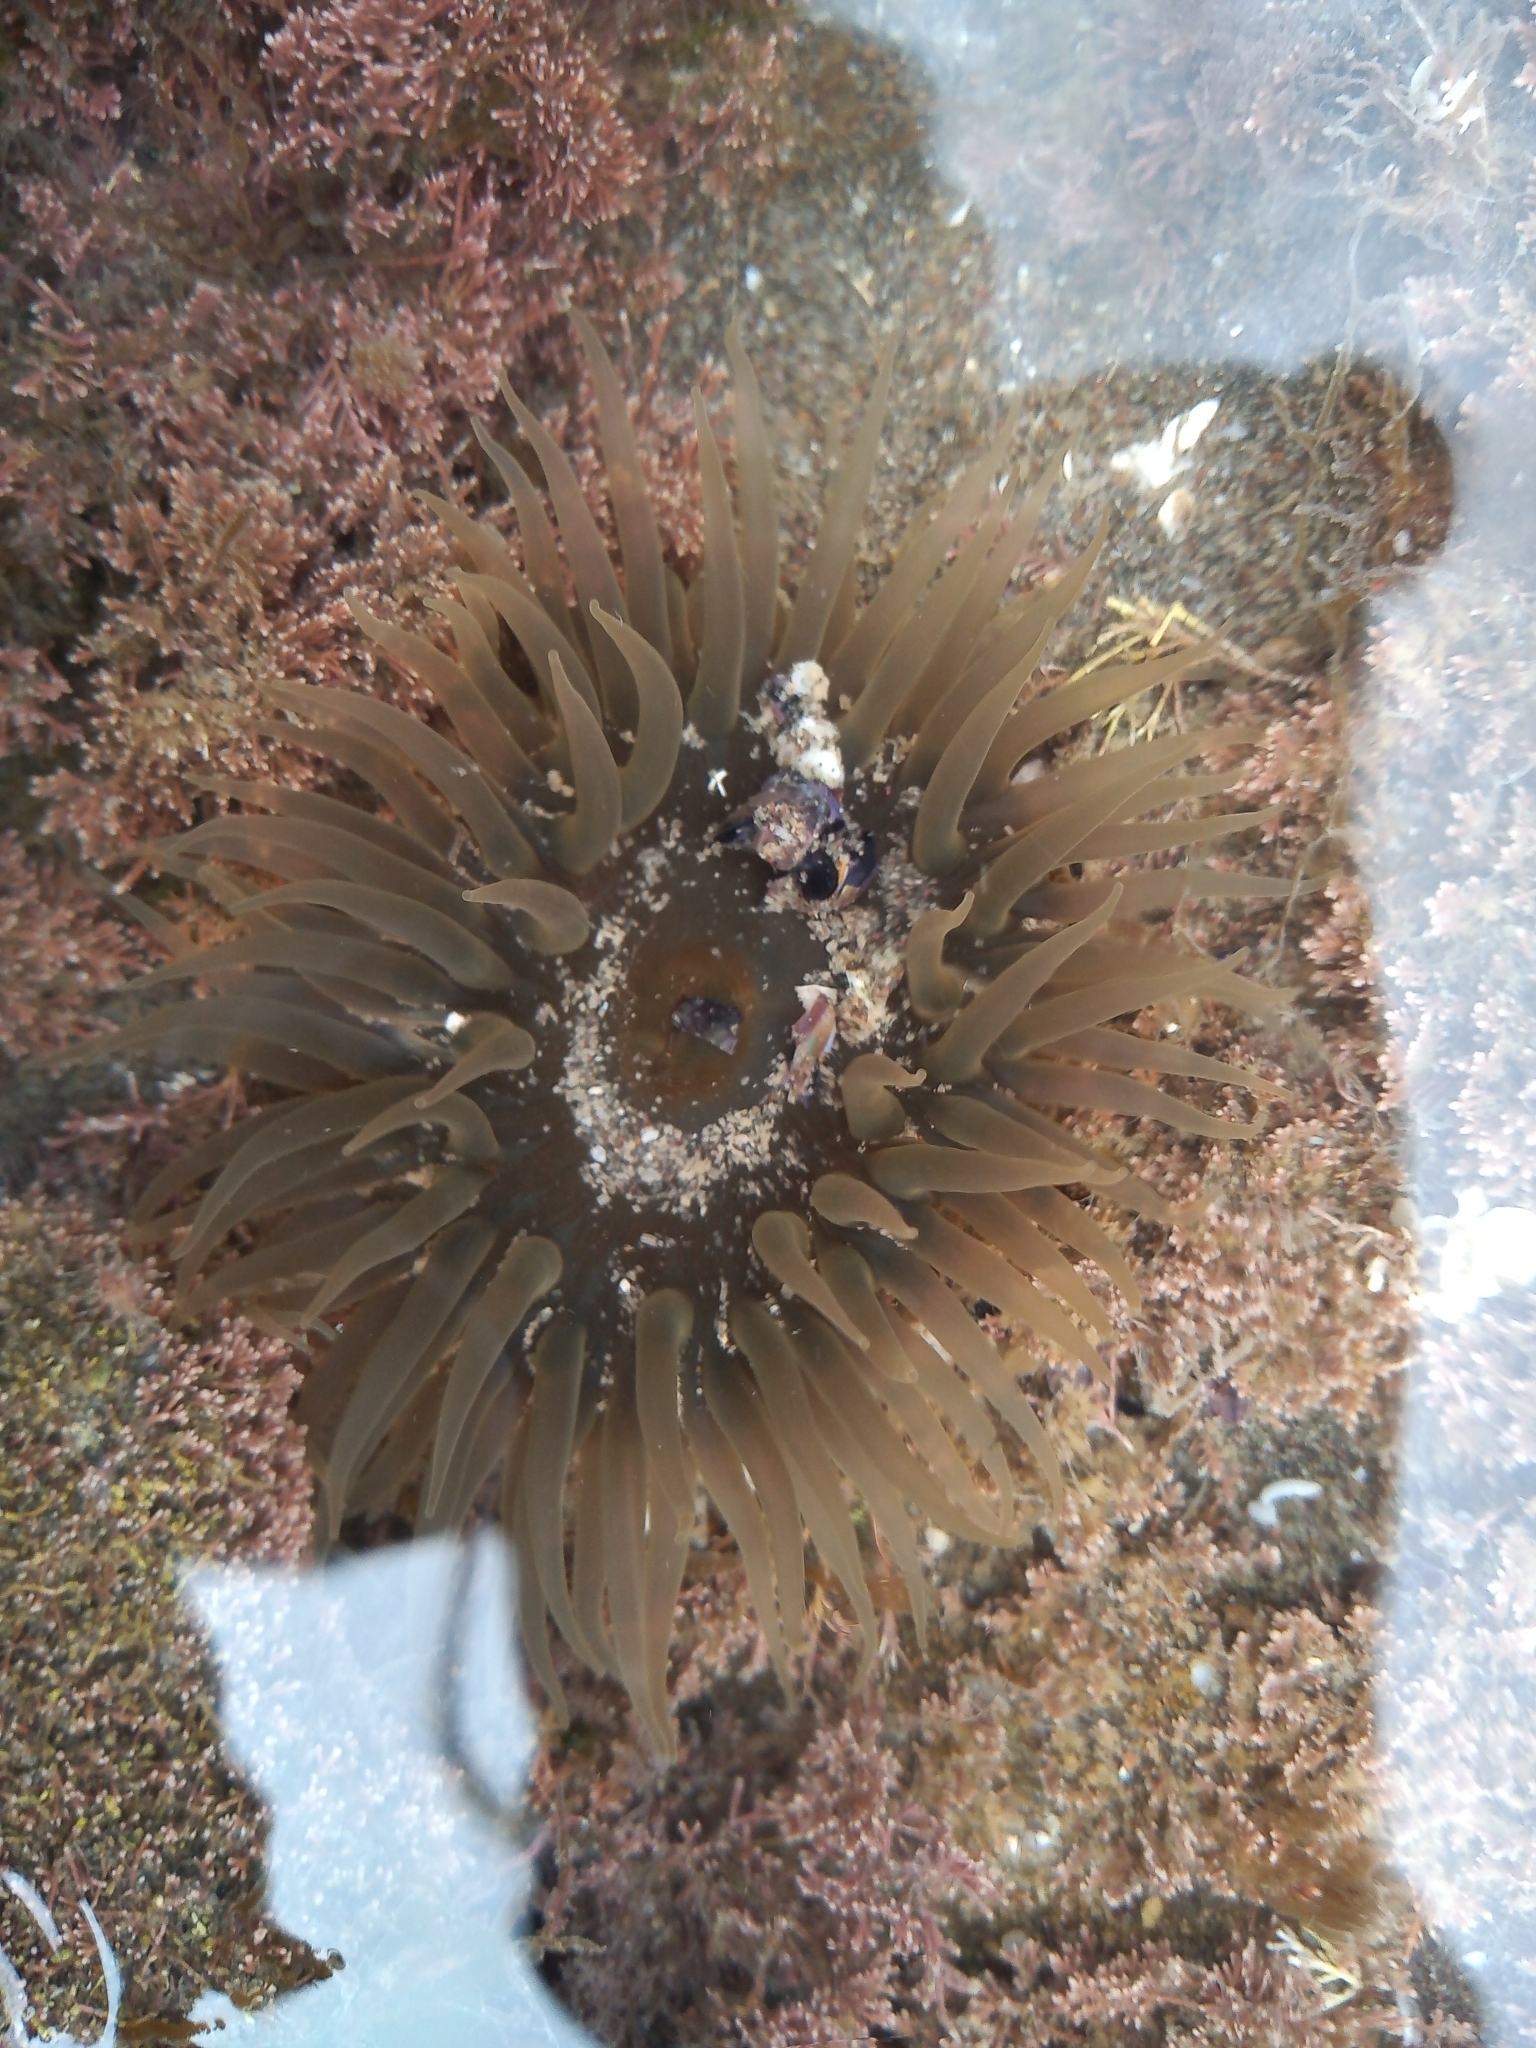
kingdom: Animalia
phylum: Cnidaria
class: Anthozoa
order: Actiniaria
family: Actiniidae
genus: Parabunodactis
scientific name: Parabunodactis imperfecta
